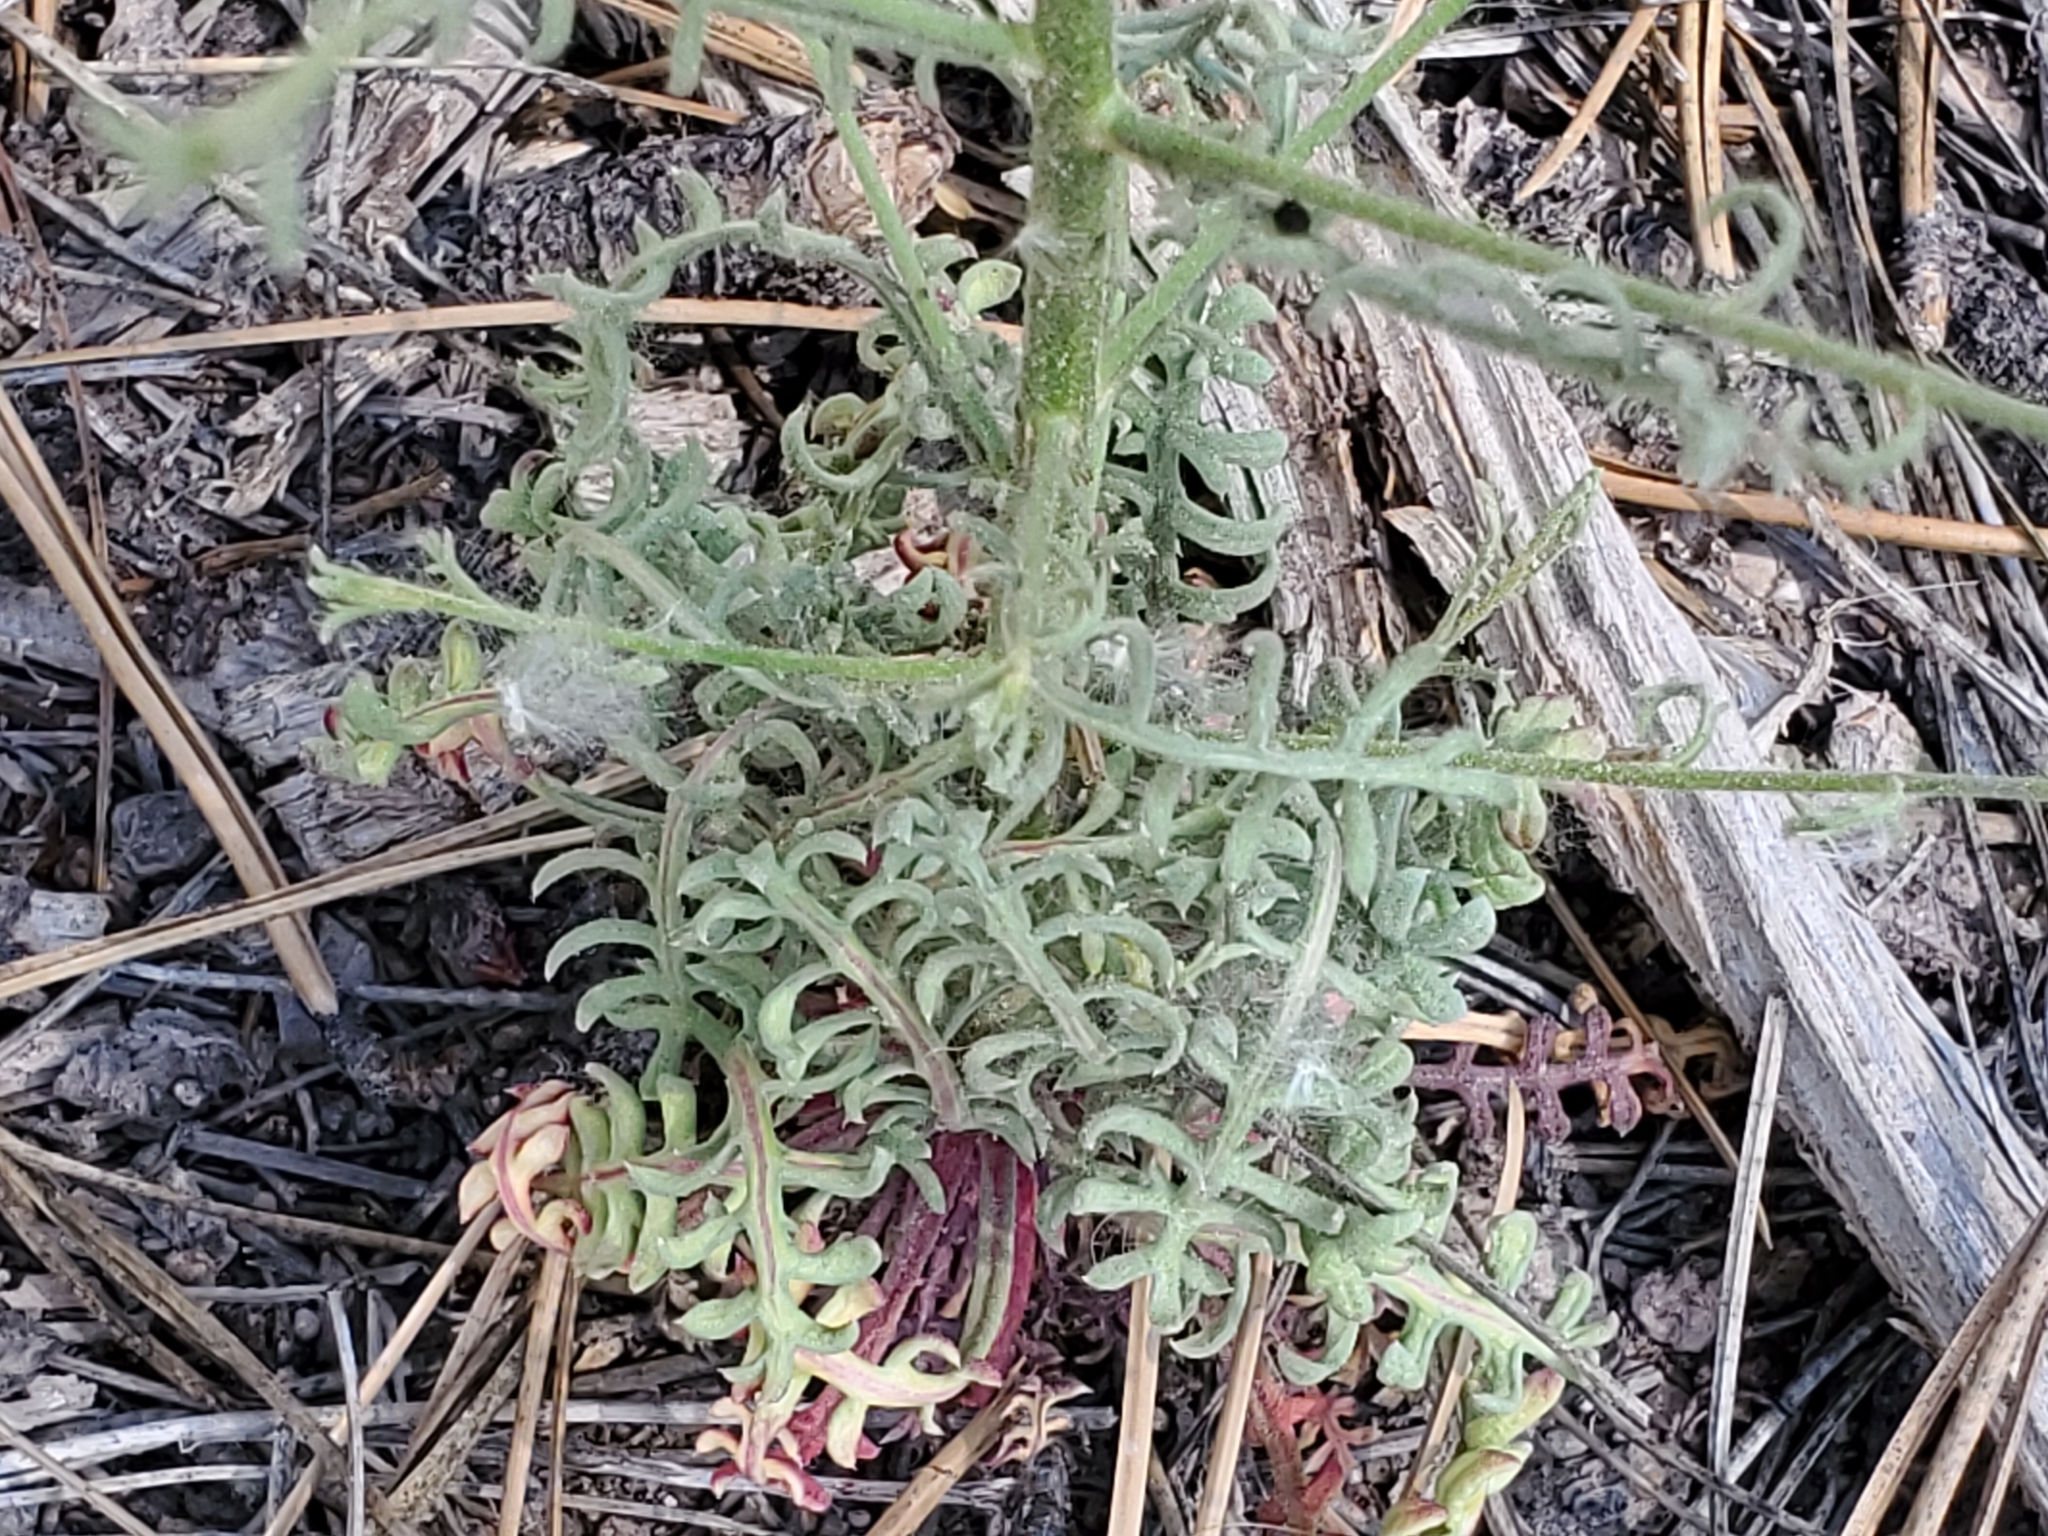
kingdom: Plantae
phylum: Tracheophyta
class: Magnoliopsida
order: Ericales
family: Polemoniaceae
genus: Aliciella
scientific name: Aliciella pinnatifida
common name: Sticky gilia
